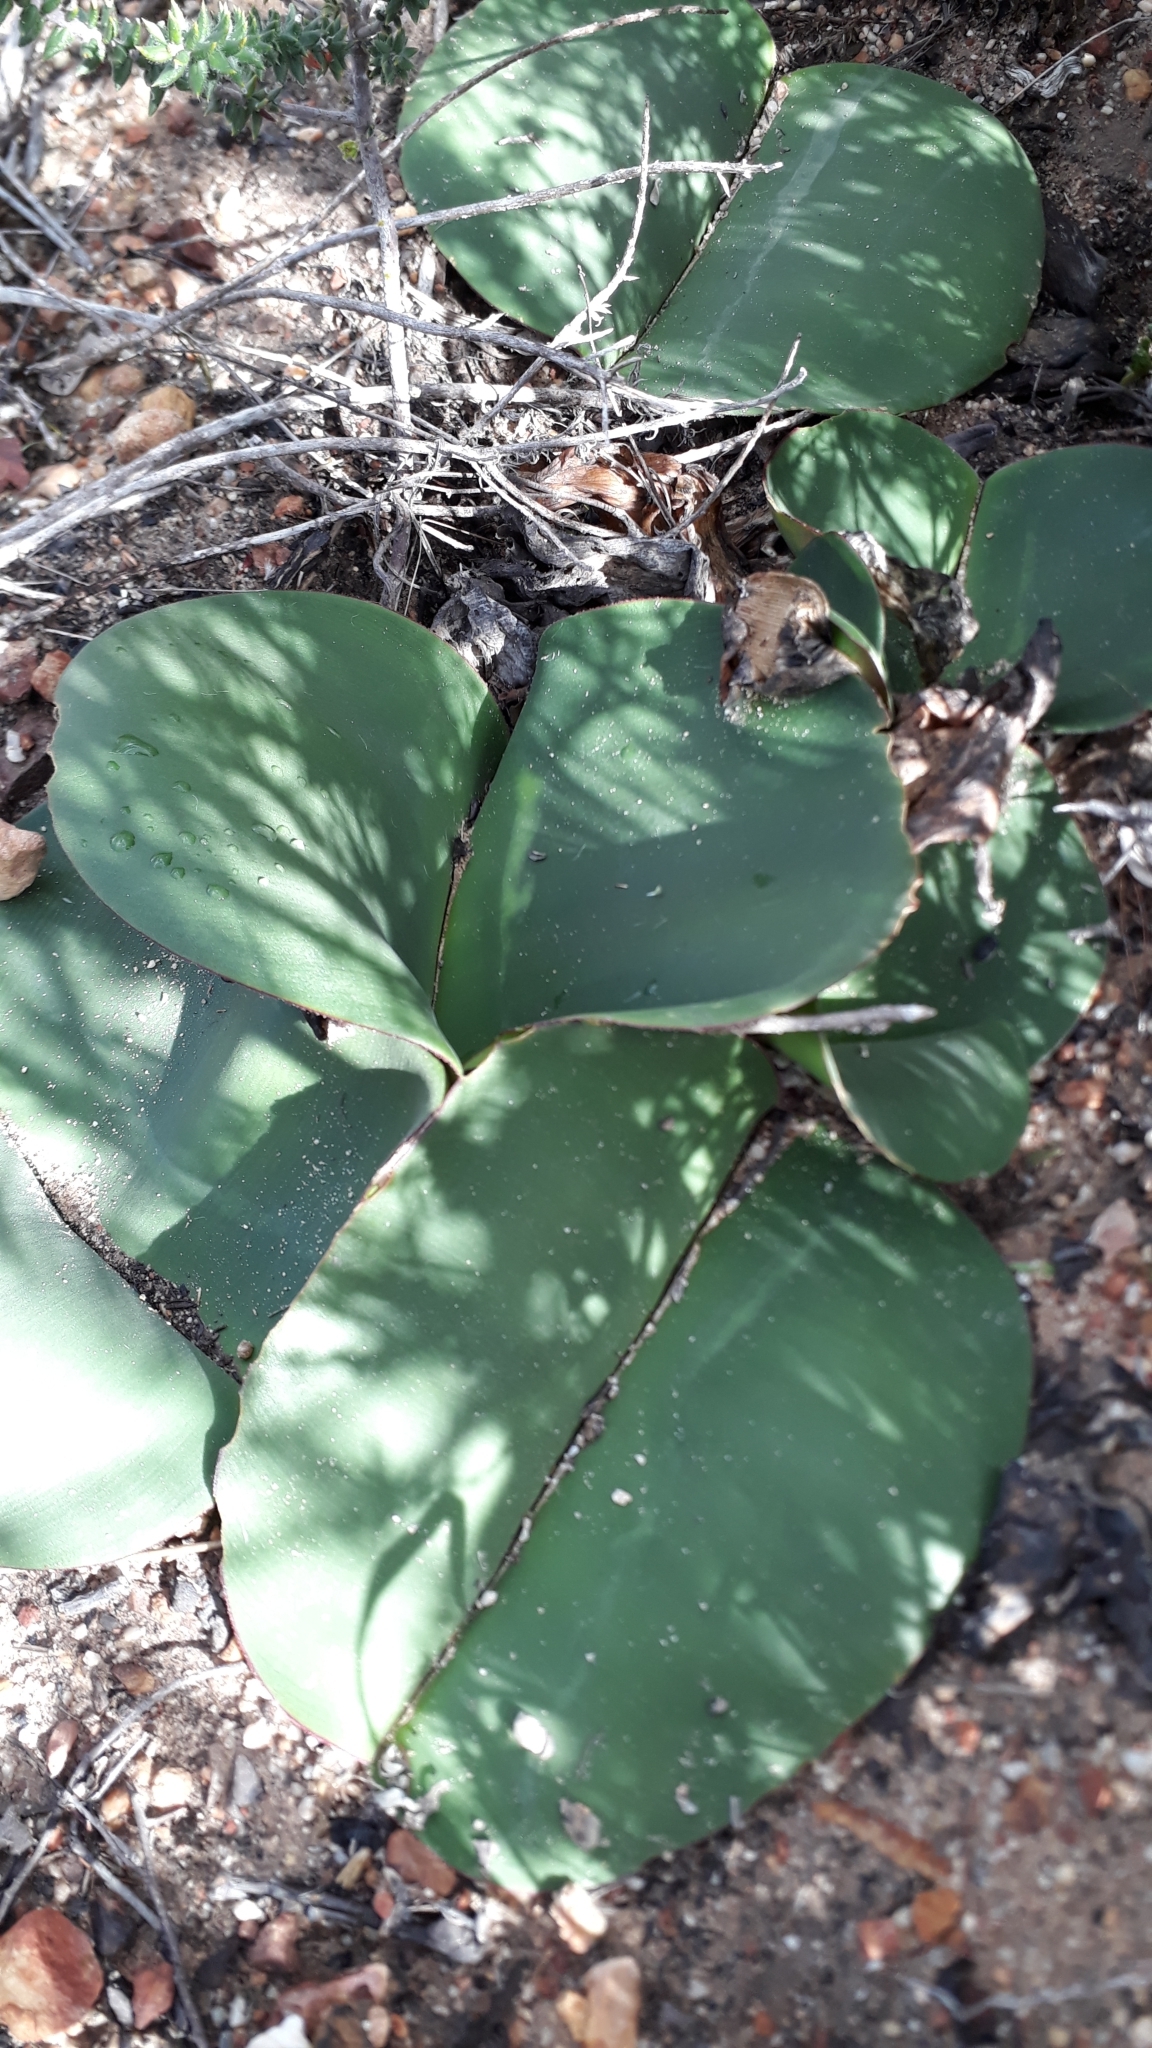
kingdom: Plantae
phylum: Tracheophyta
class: Liliopsida
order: Asparagales
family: Amaryllidaceae
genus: Haemanthus
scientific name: Haemanthus sanguineus
